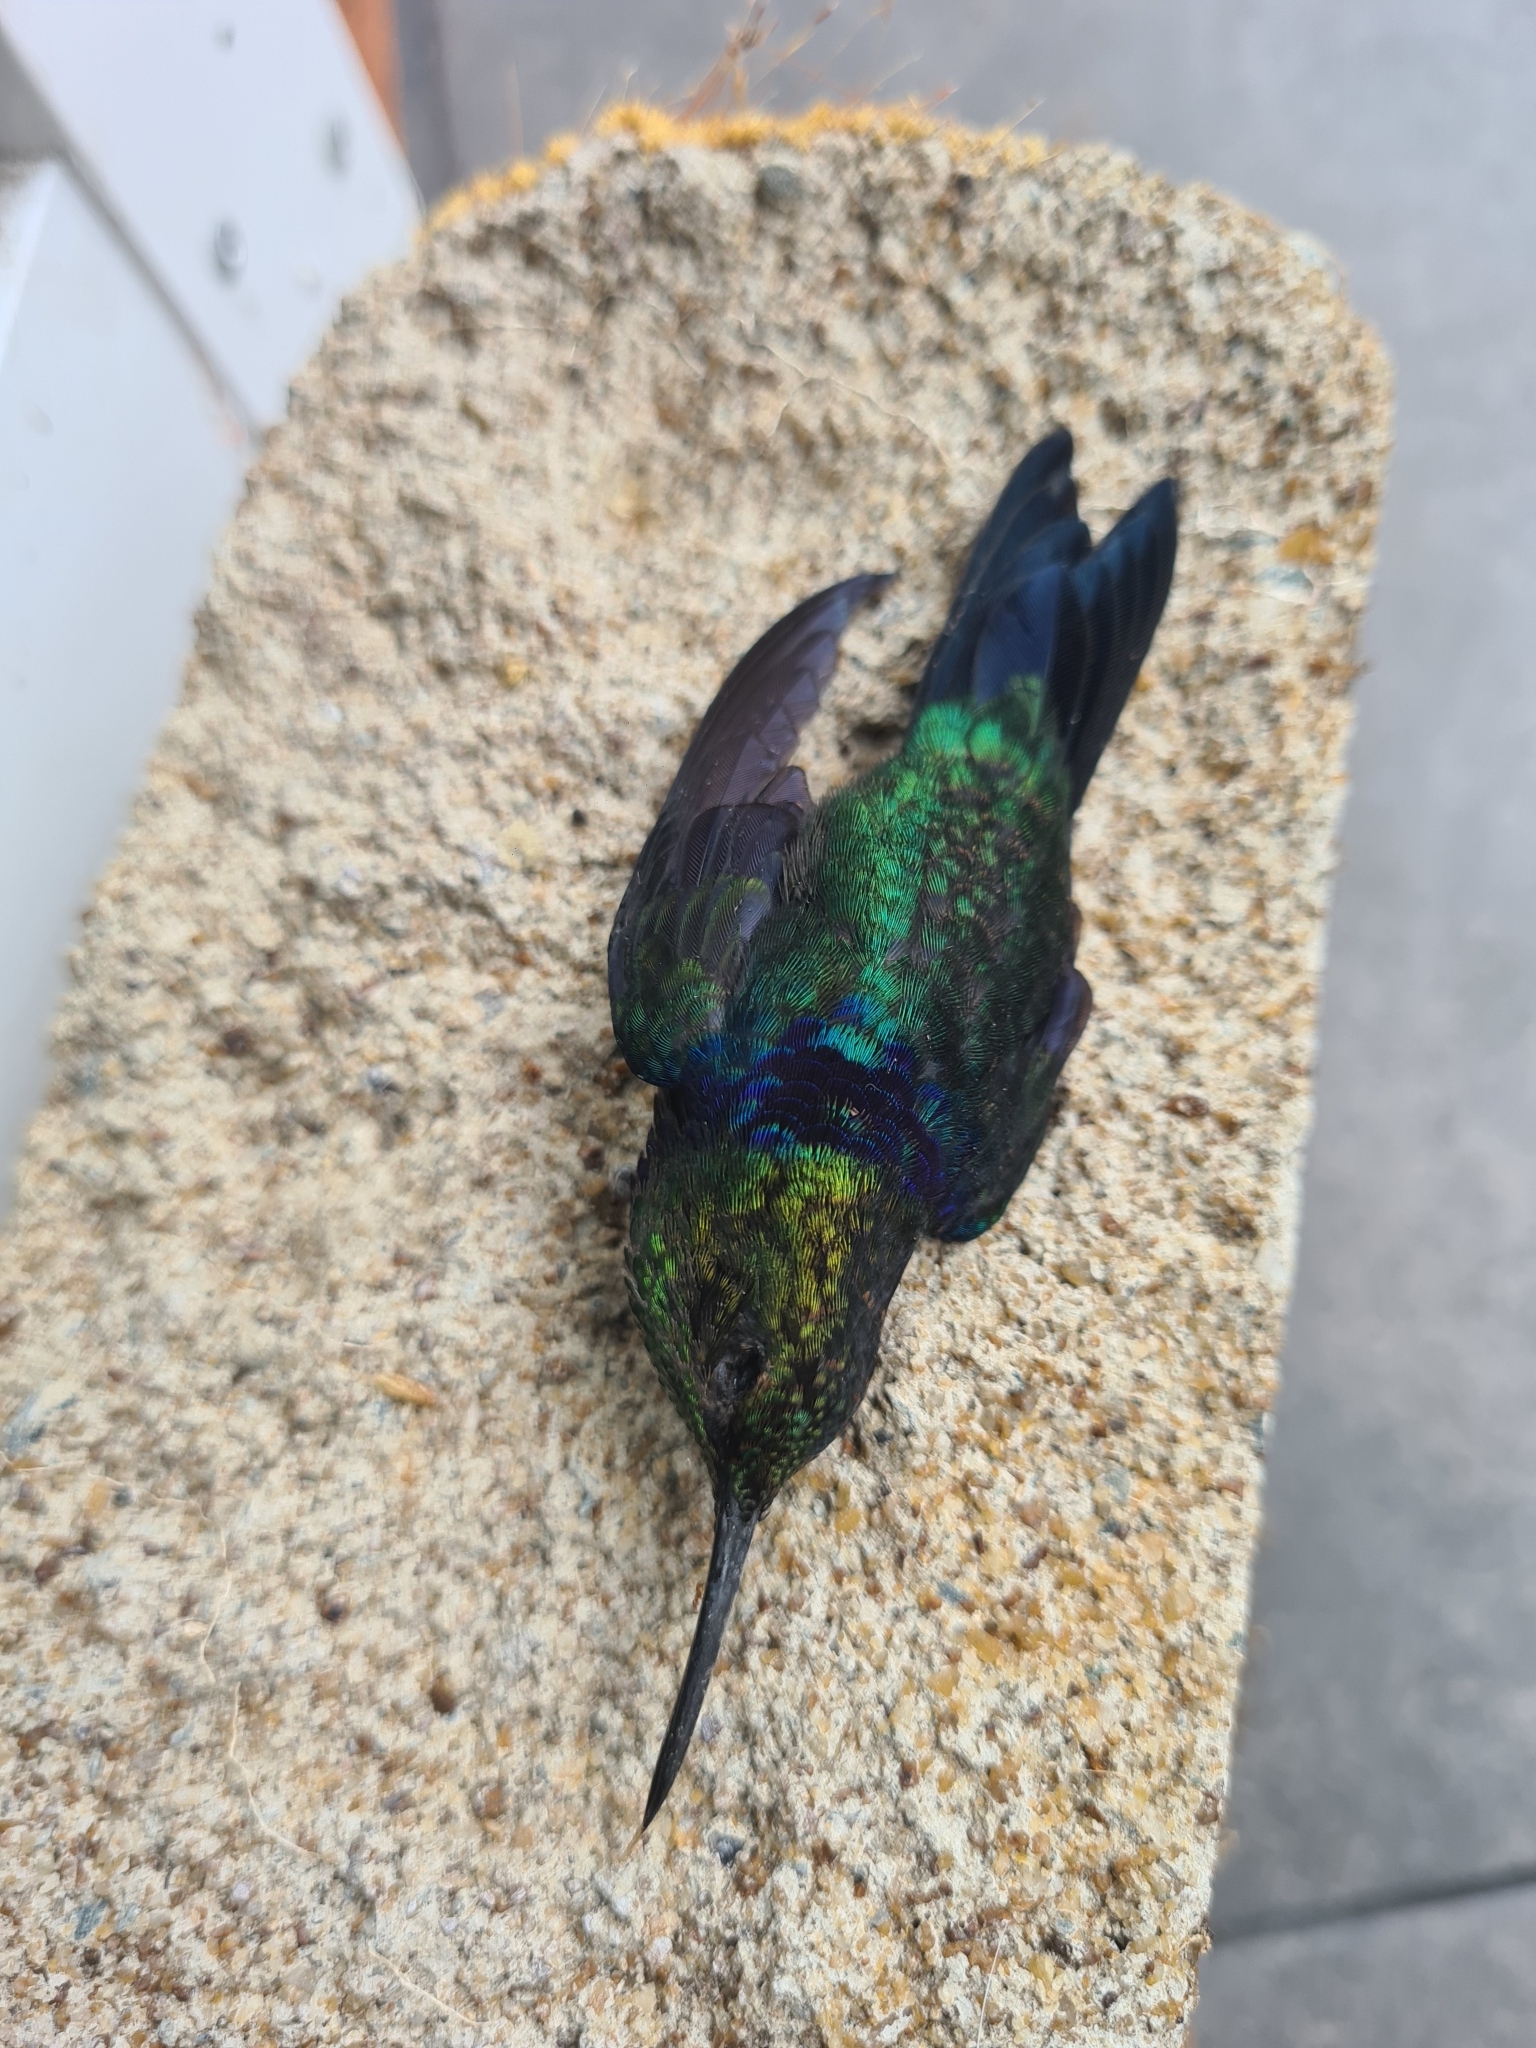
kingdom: Animalia
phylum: Chordata
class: Aves
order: Apodiformes
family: Trochilidae
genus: Thalurania
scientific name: Thalurania furcata
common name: Fork-tailed woodnymph
